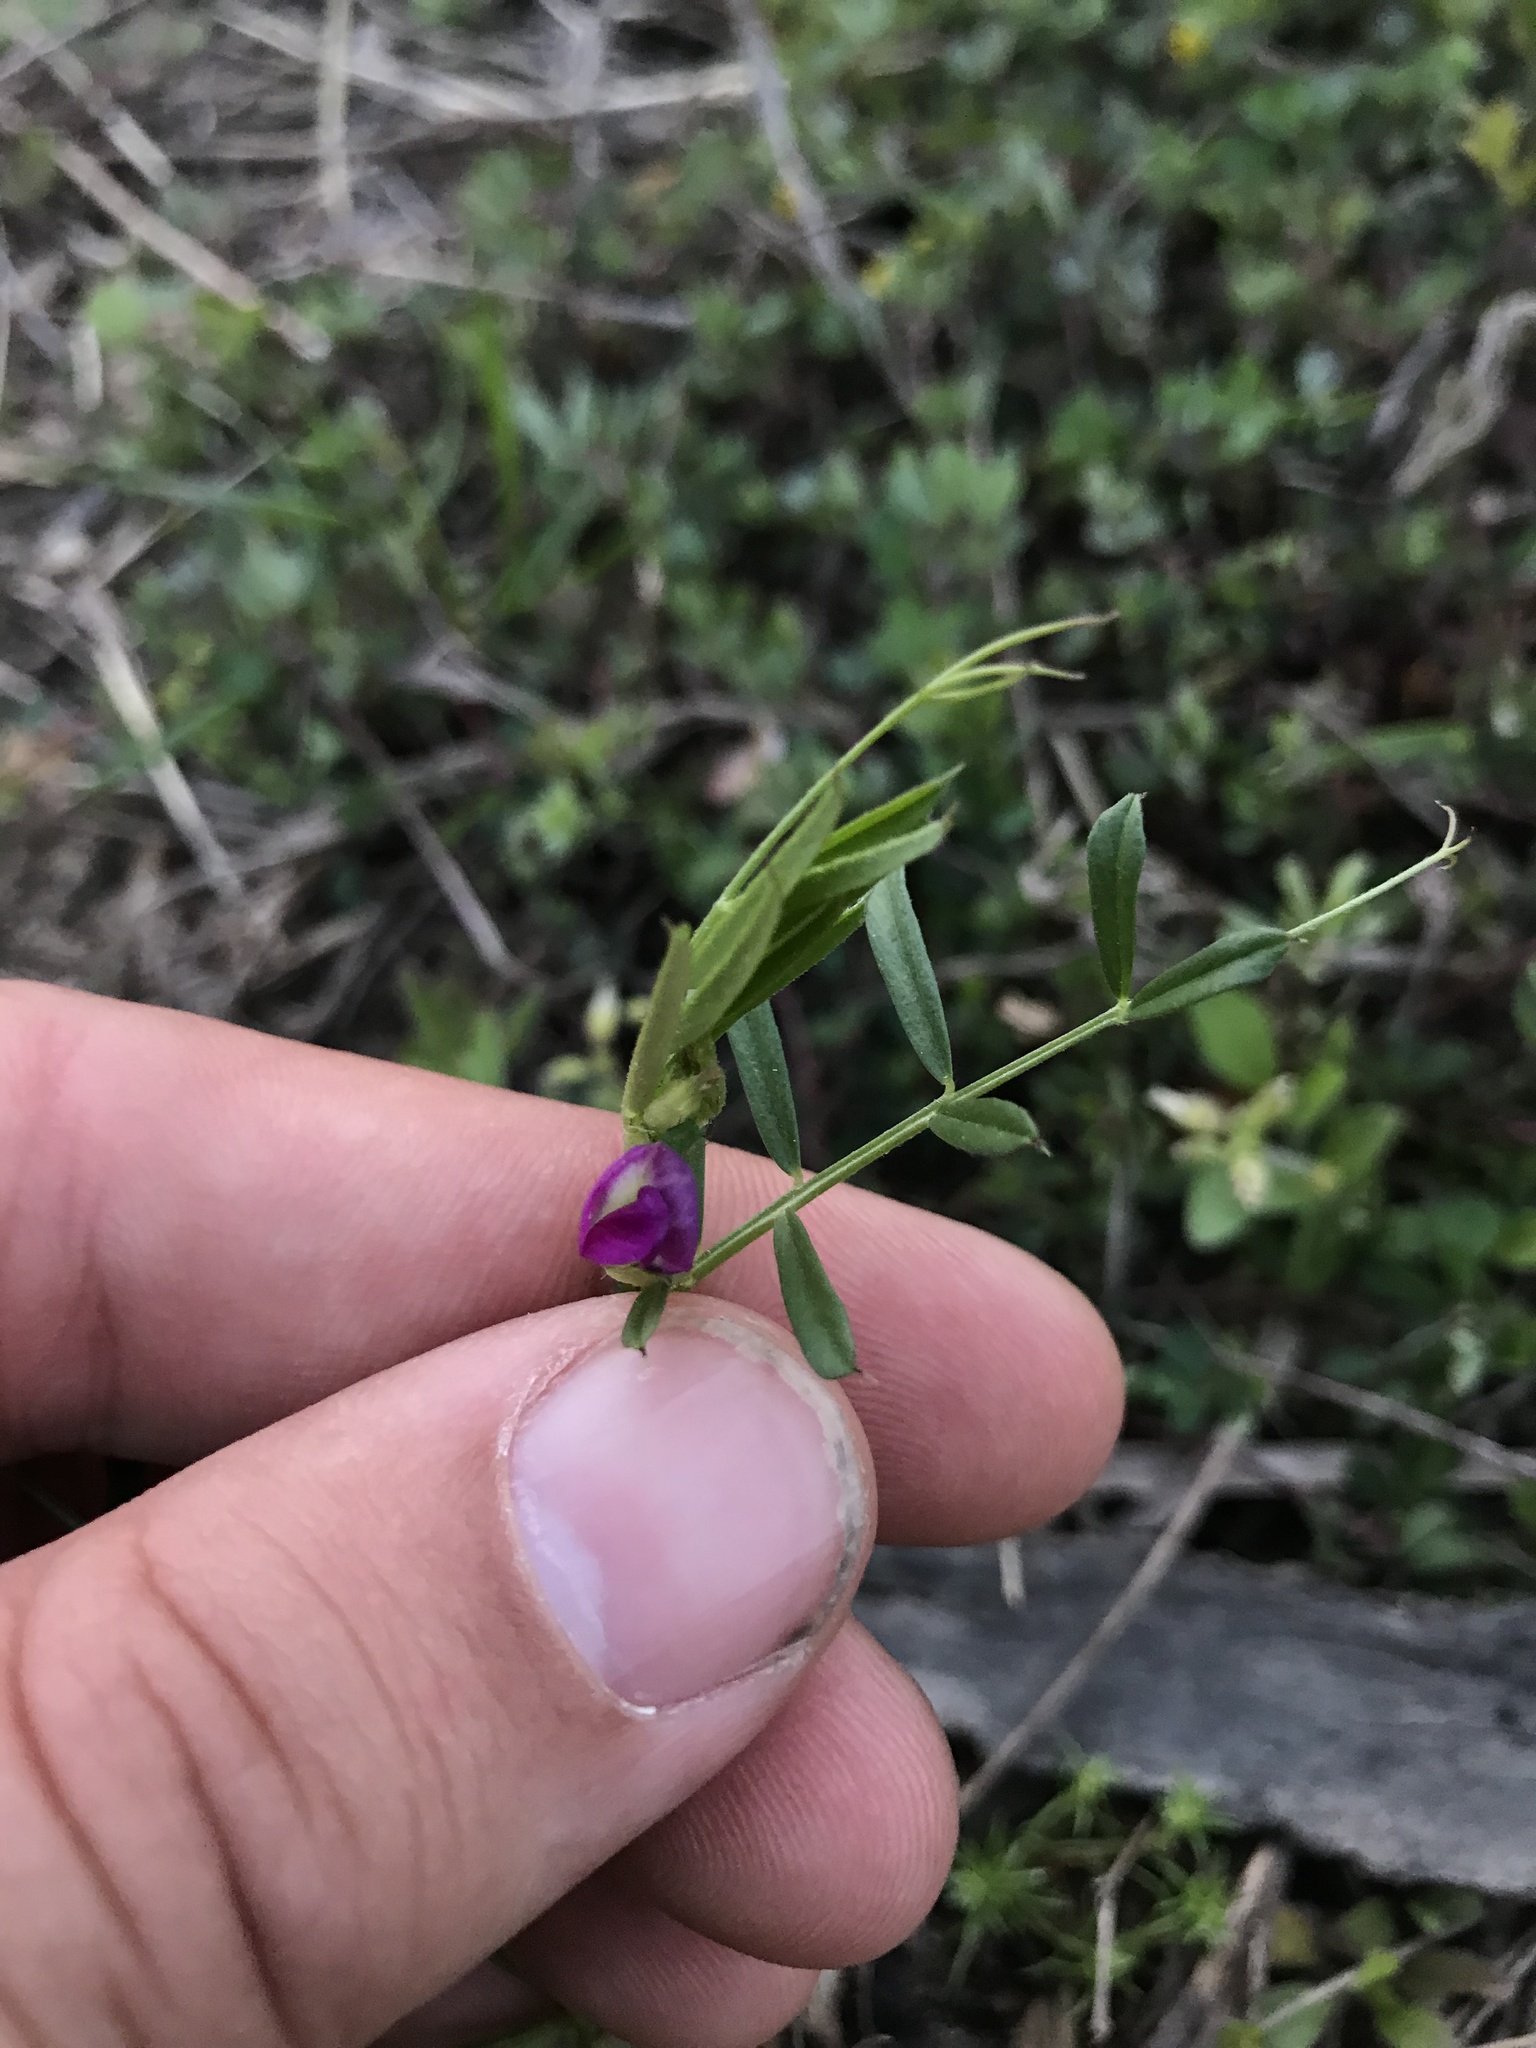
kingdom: Plantae
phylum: Tracheophyta
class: Magnoliopsida
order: Fabales
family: Fabaceae
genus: Vicia
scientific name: Vicia sativa
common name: Garden vetch
